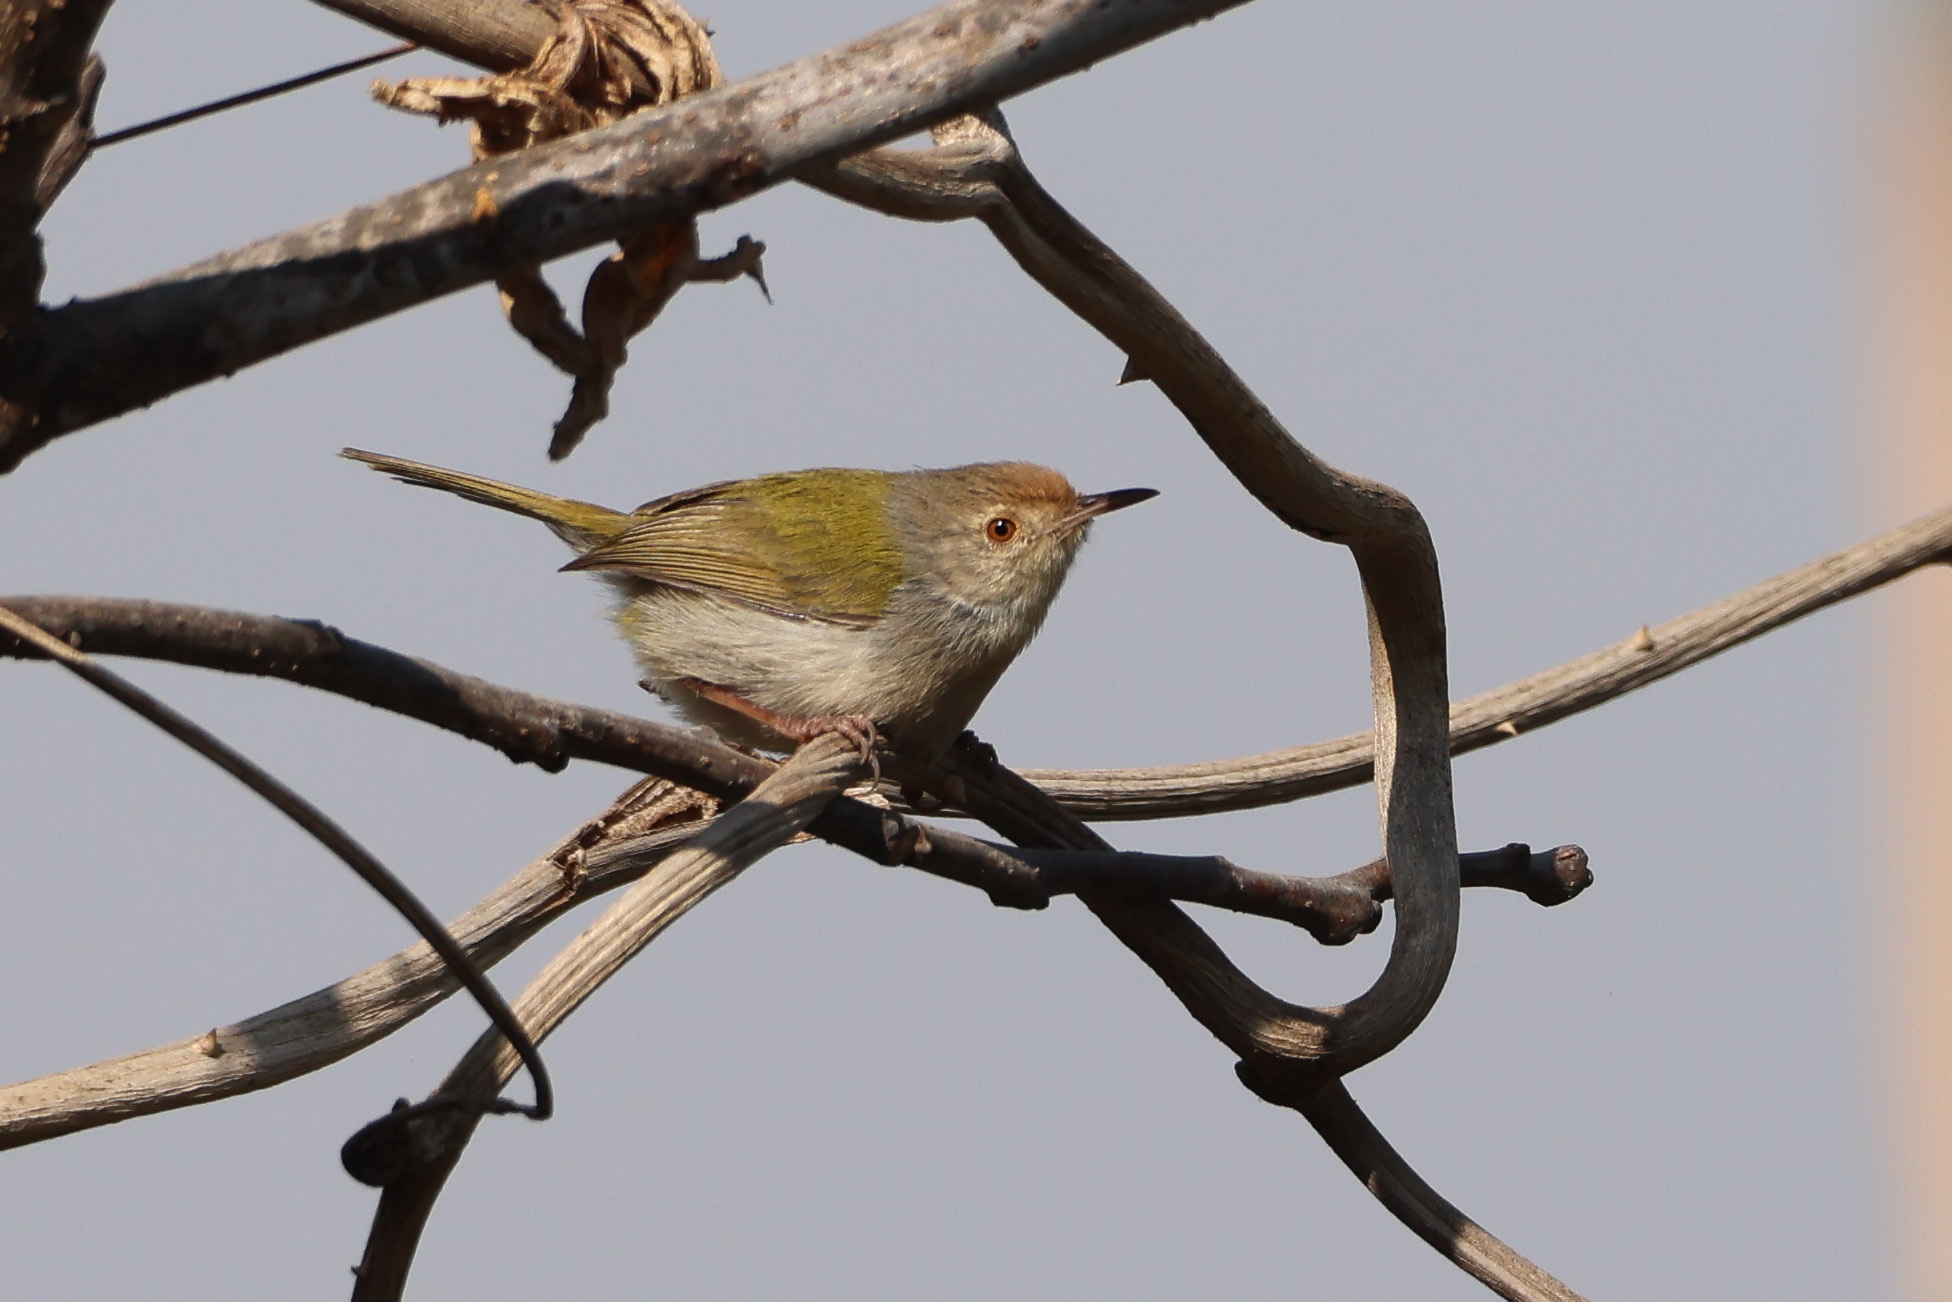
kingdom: Animalia
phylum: Chordata
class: Aves
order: Passeriformes
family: Cisticolidae
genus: Orthotomus
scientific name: Orthotomus sutorius
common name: Common tailorbird
